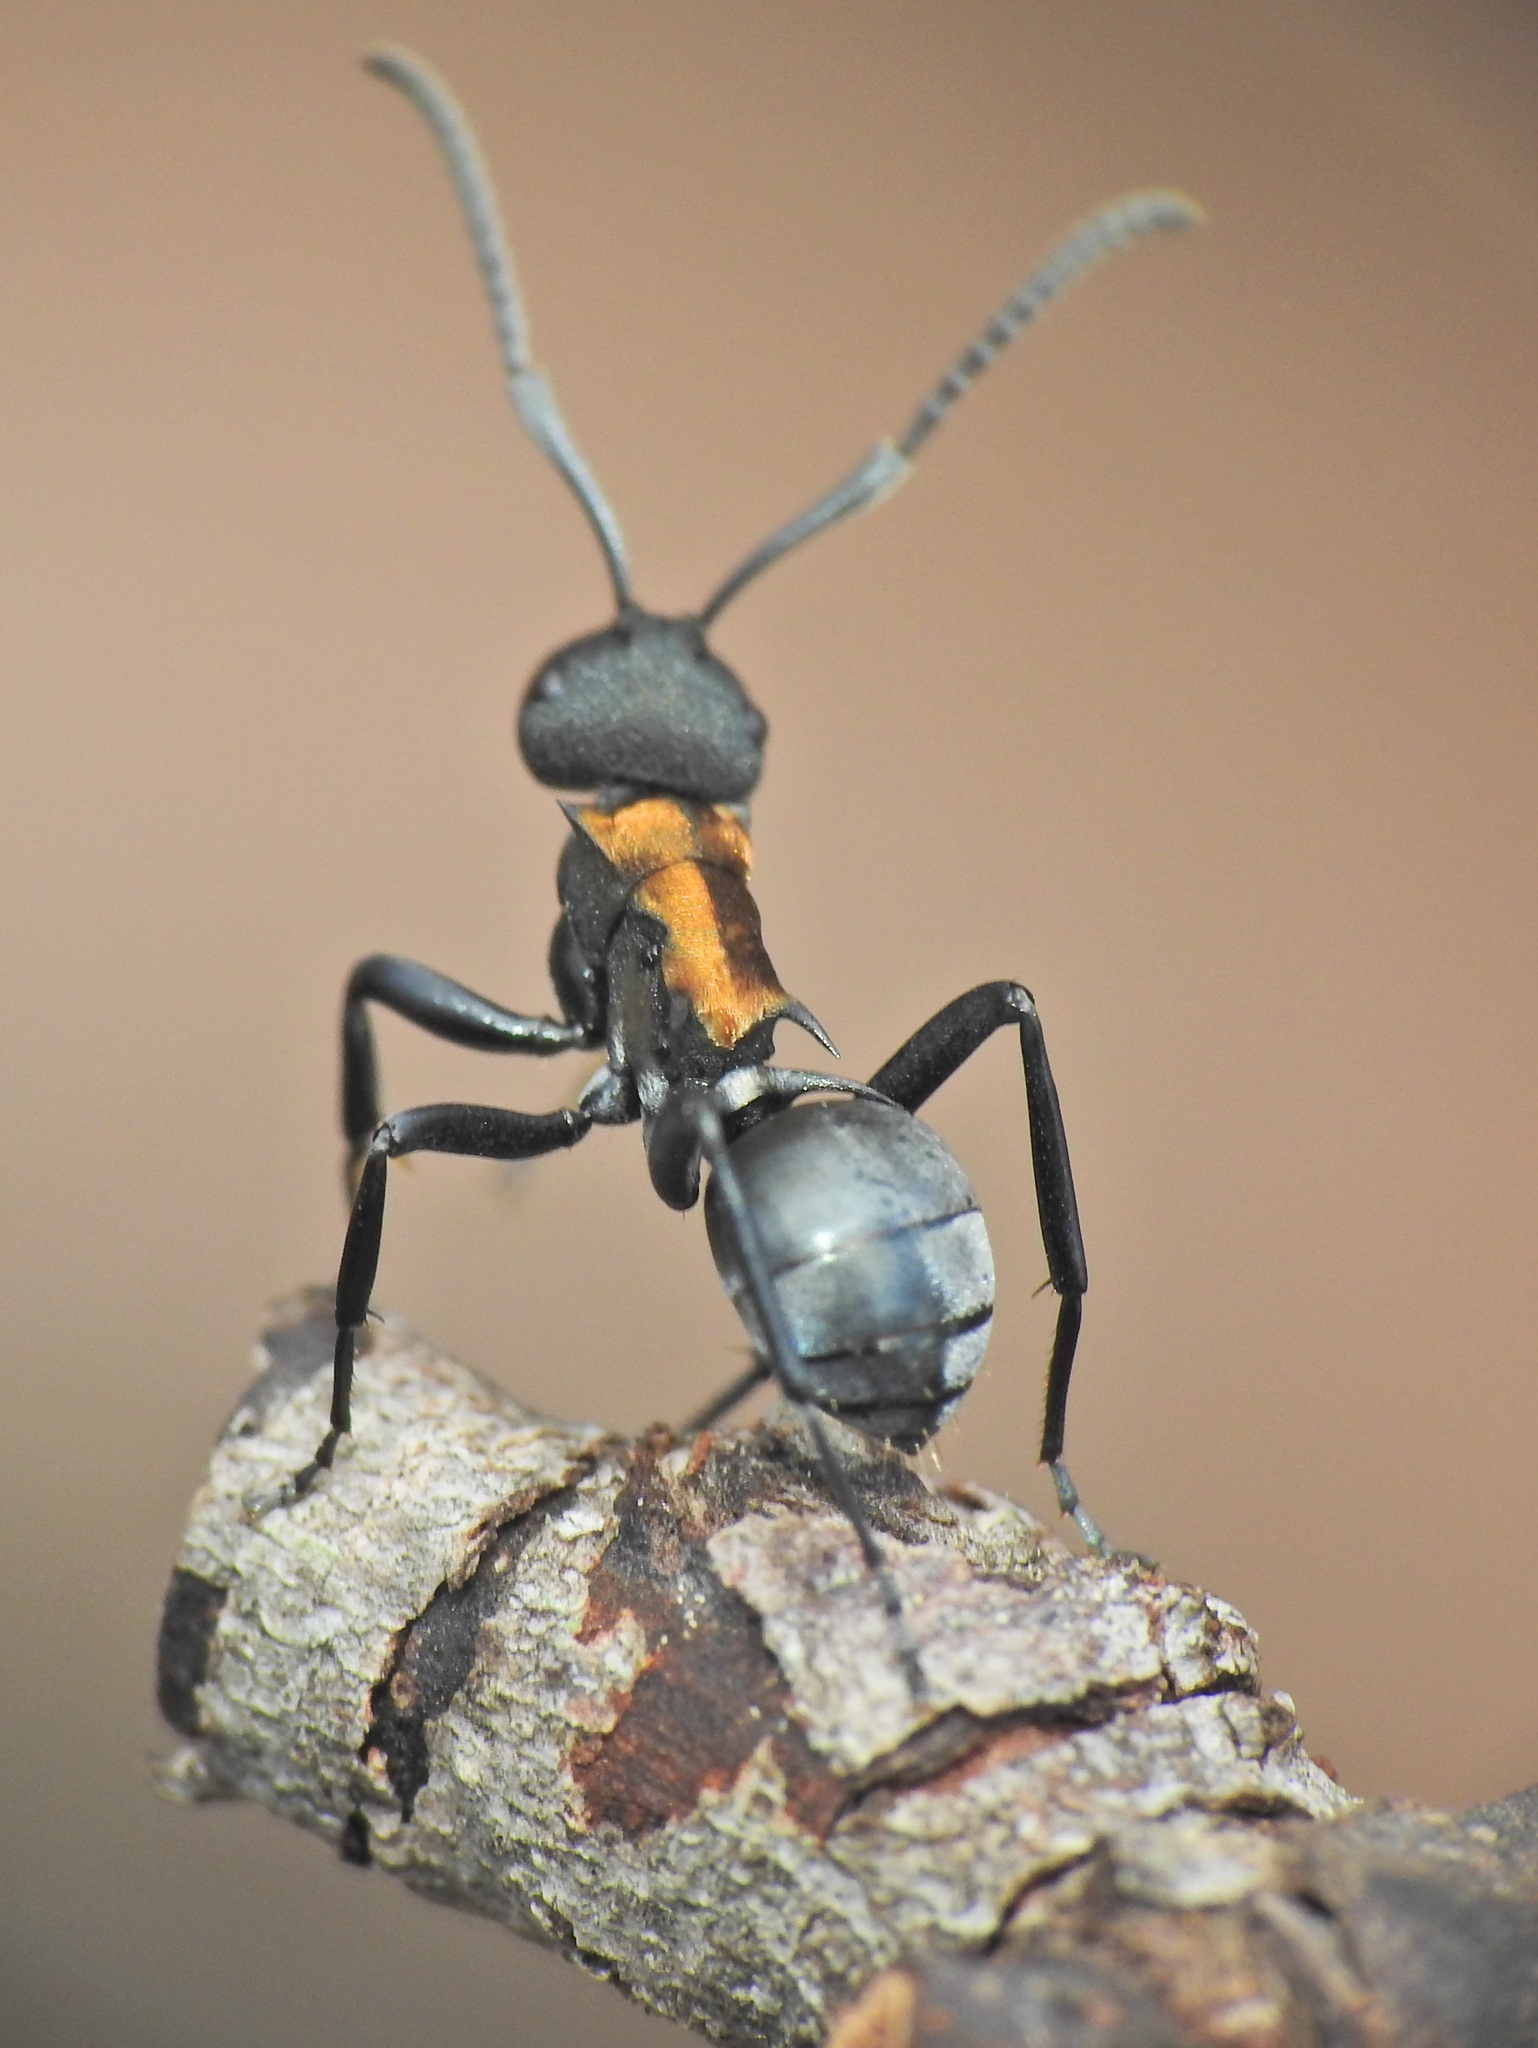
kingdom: Animalia
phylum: Arthropoda
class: Insecta
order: Hymenoptera
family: Formicidae
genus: Polyrhachis
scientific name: Polyrhachis ornata
